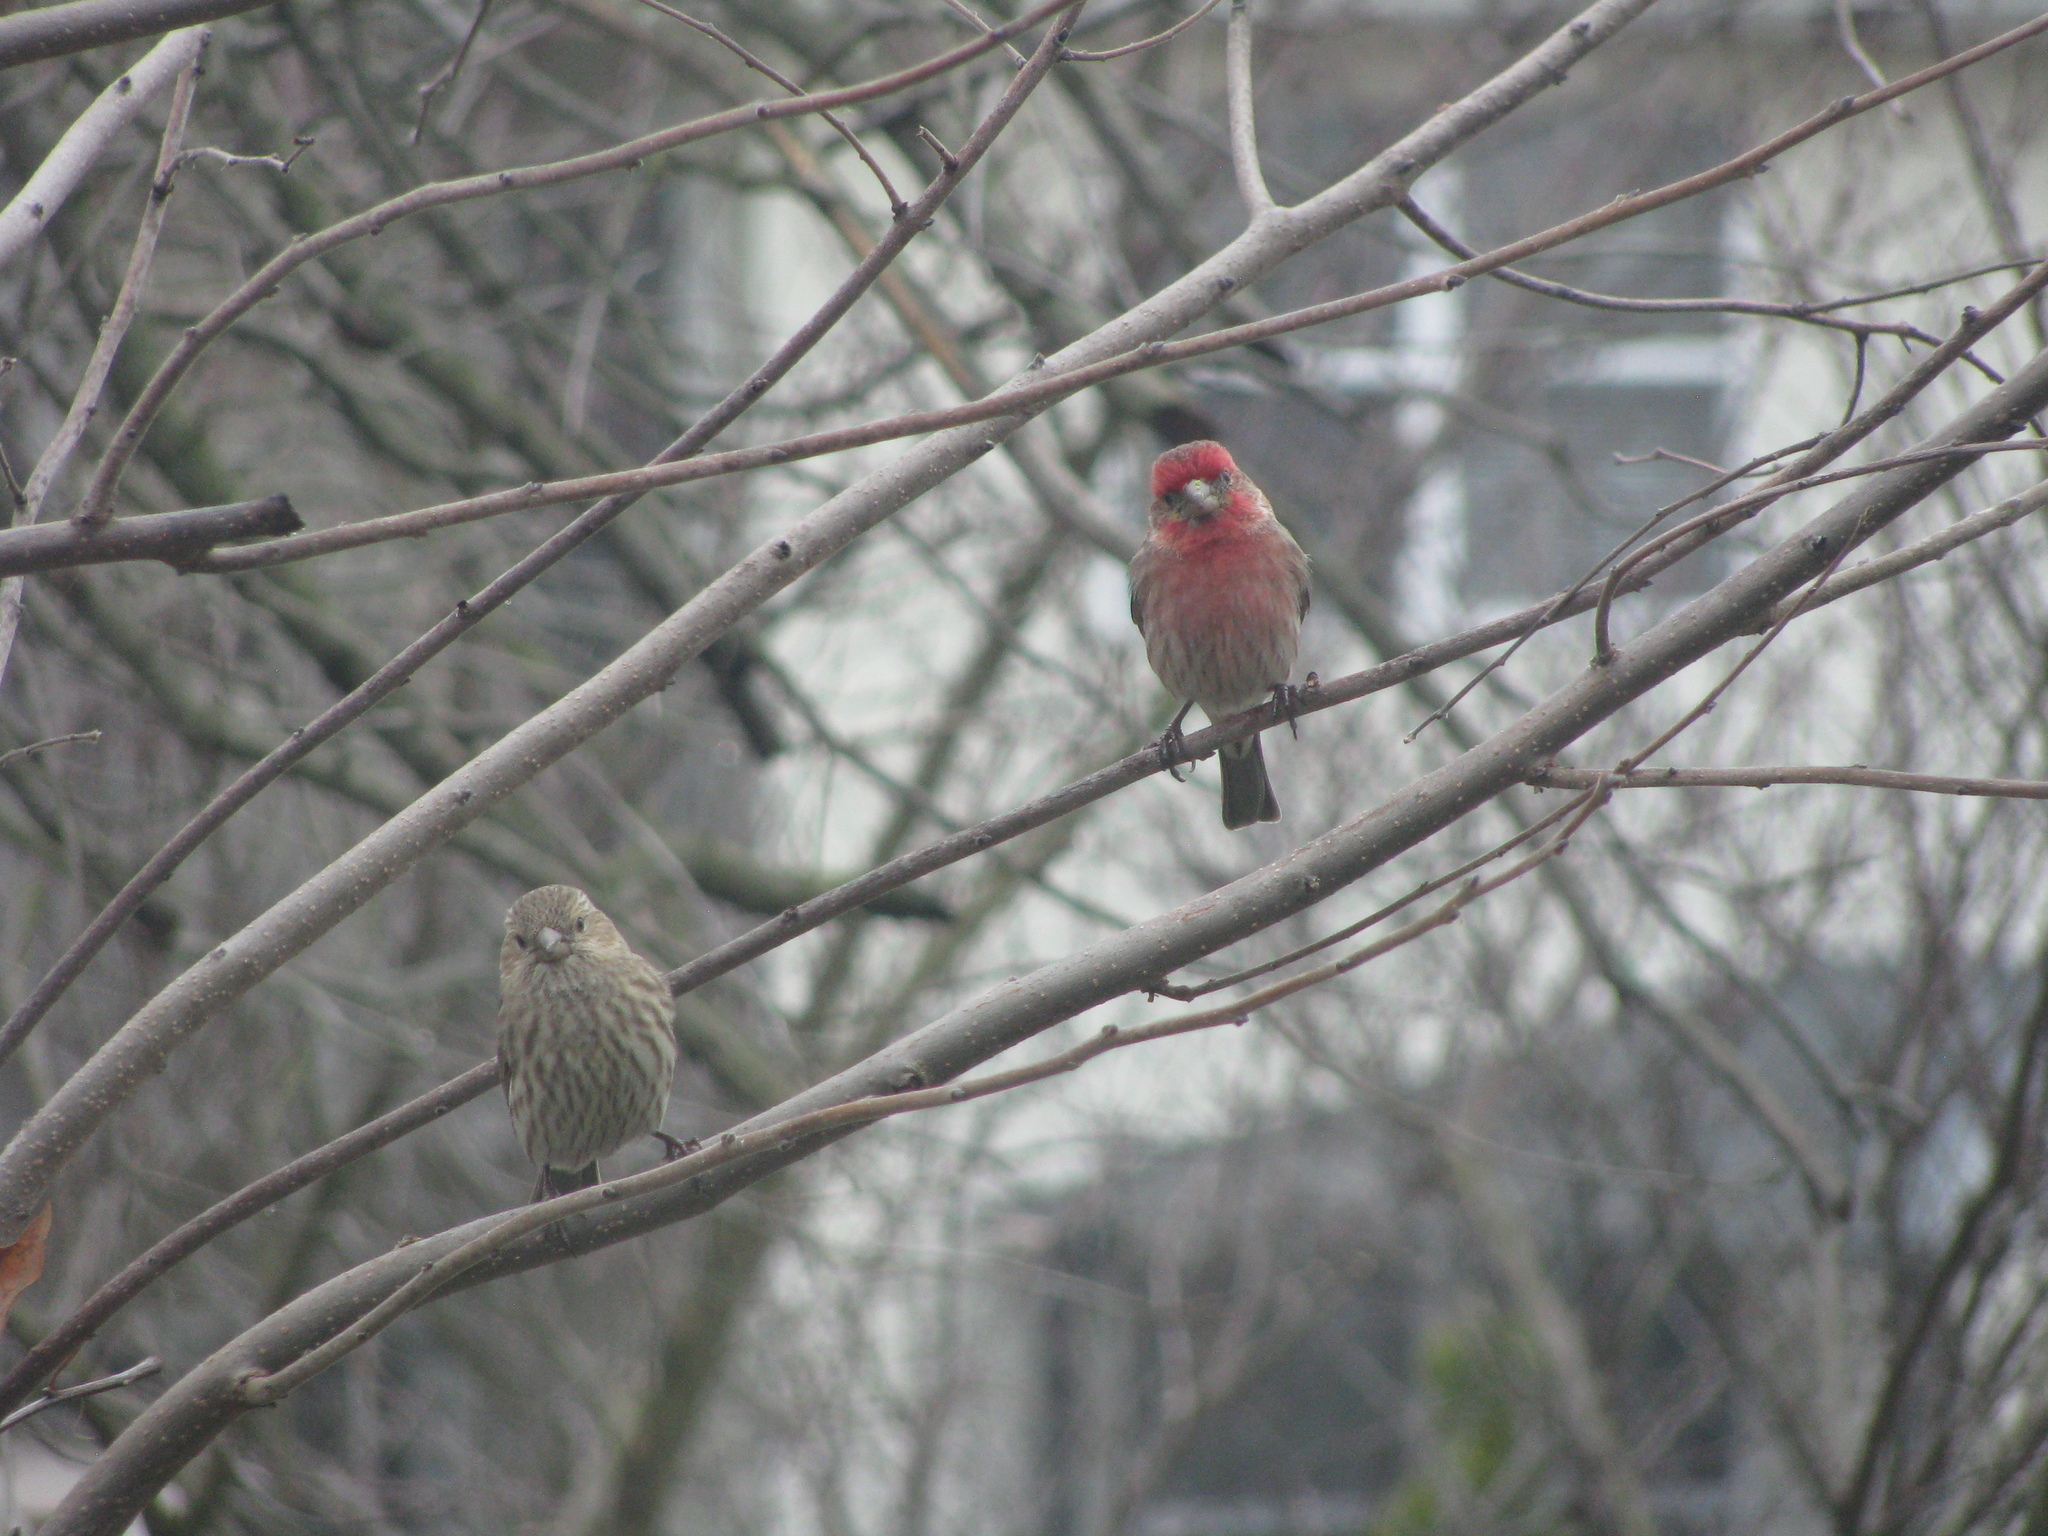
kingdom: Animalia
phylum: Chordata
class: Aves
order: Passeriformes
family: Fringillidae
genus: Haemorhous
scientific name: Haemorhous mexicanus
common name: House finch
